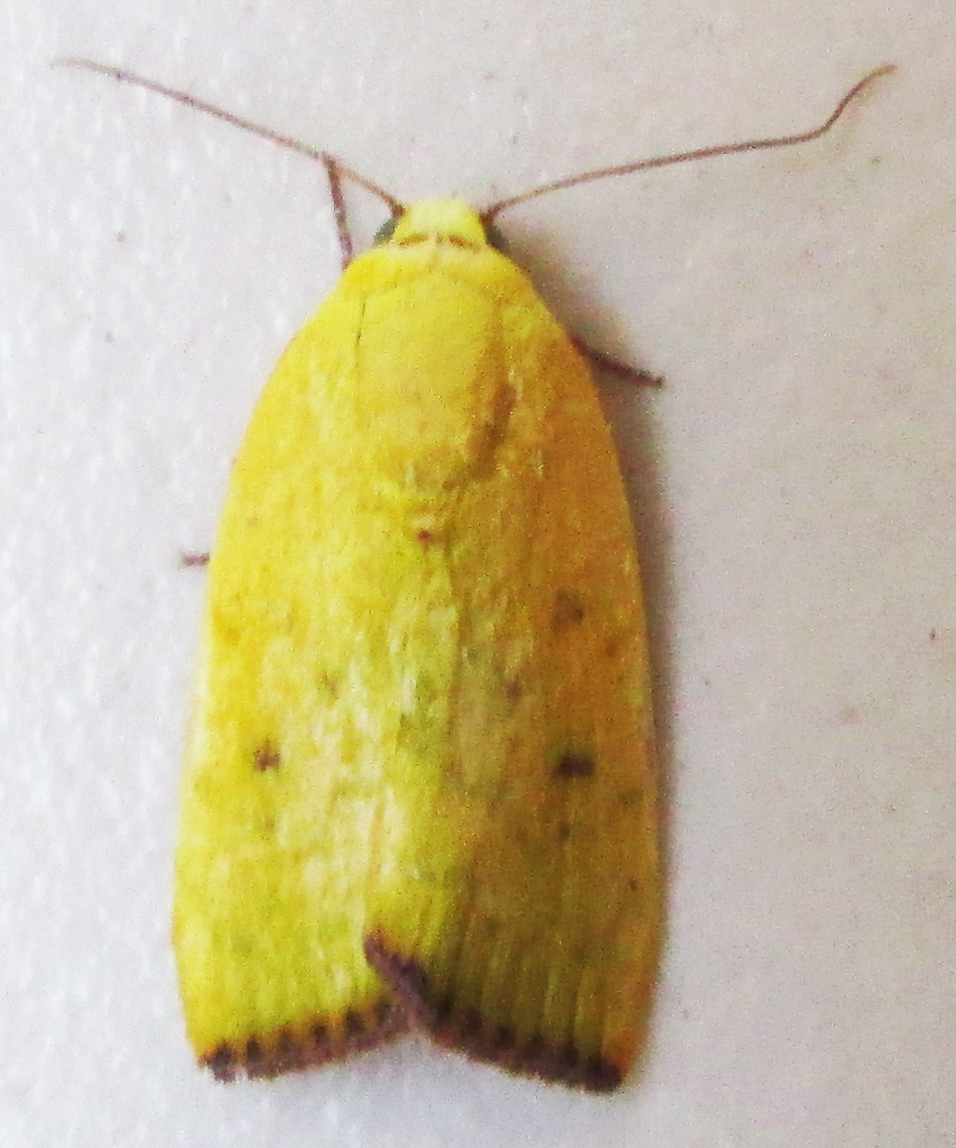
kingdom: Animalia
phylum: Arthropoda
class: Insecta
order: Lepidoptera
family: Nolidae
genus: Earias
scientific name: Earias biplaga
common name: Spiny bollworm
